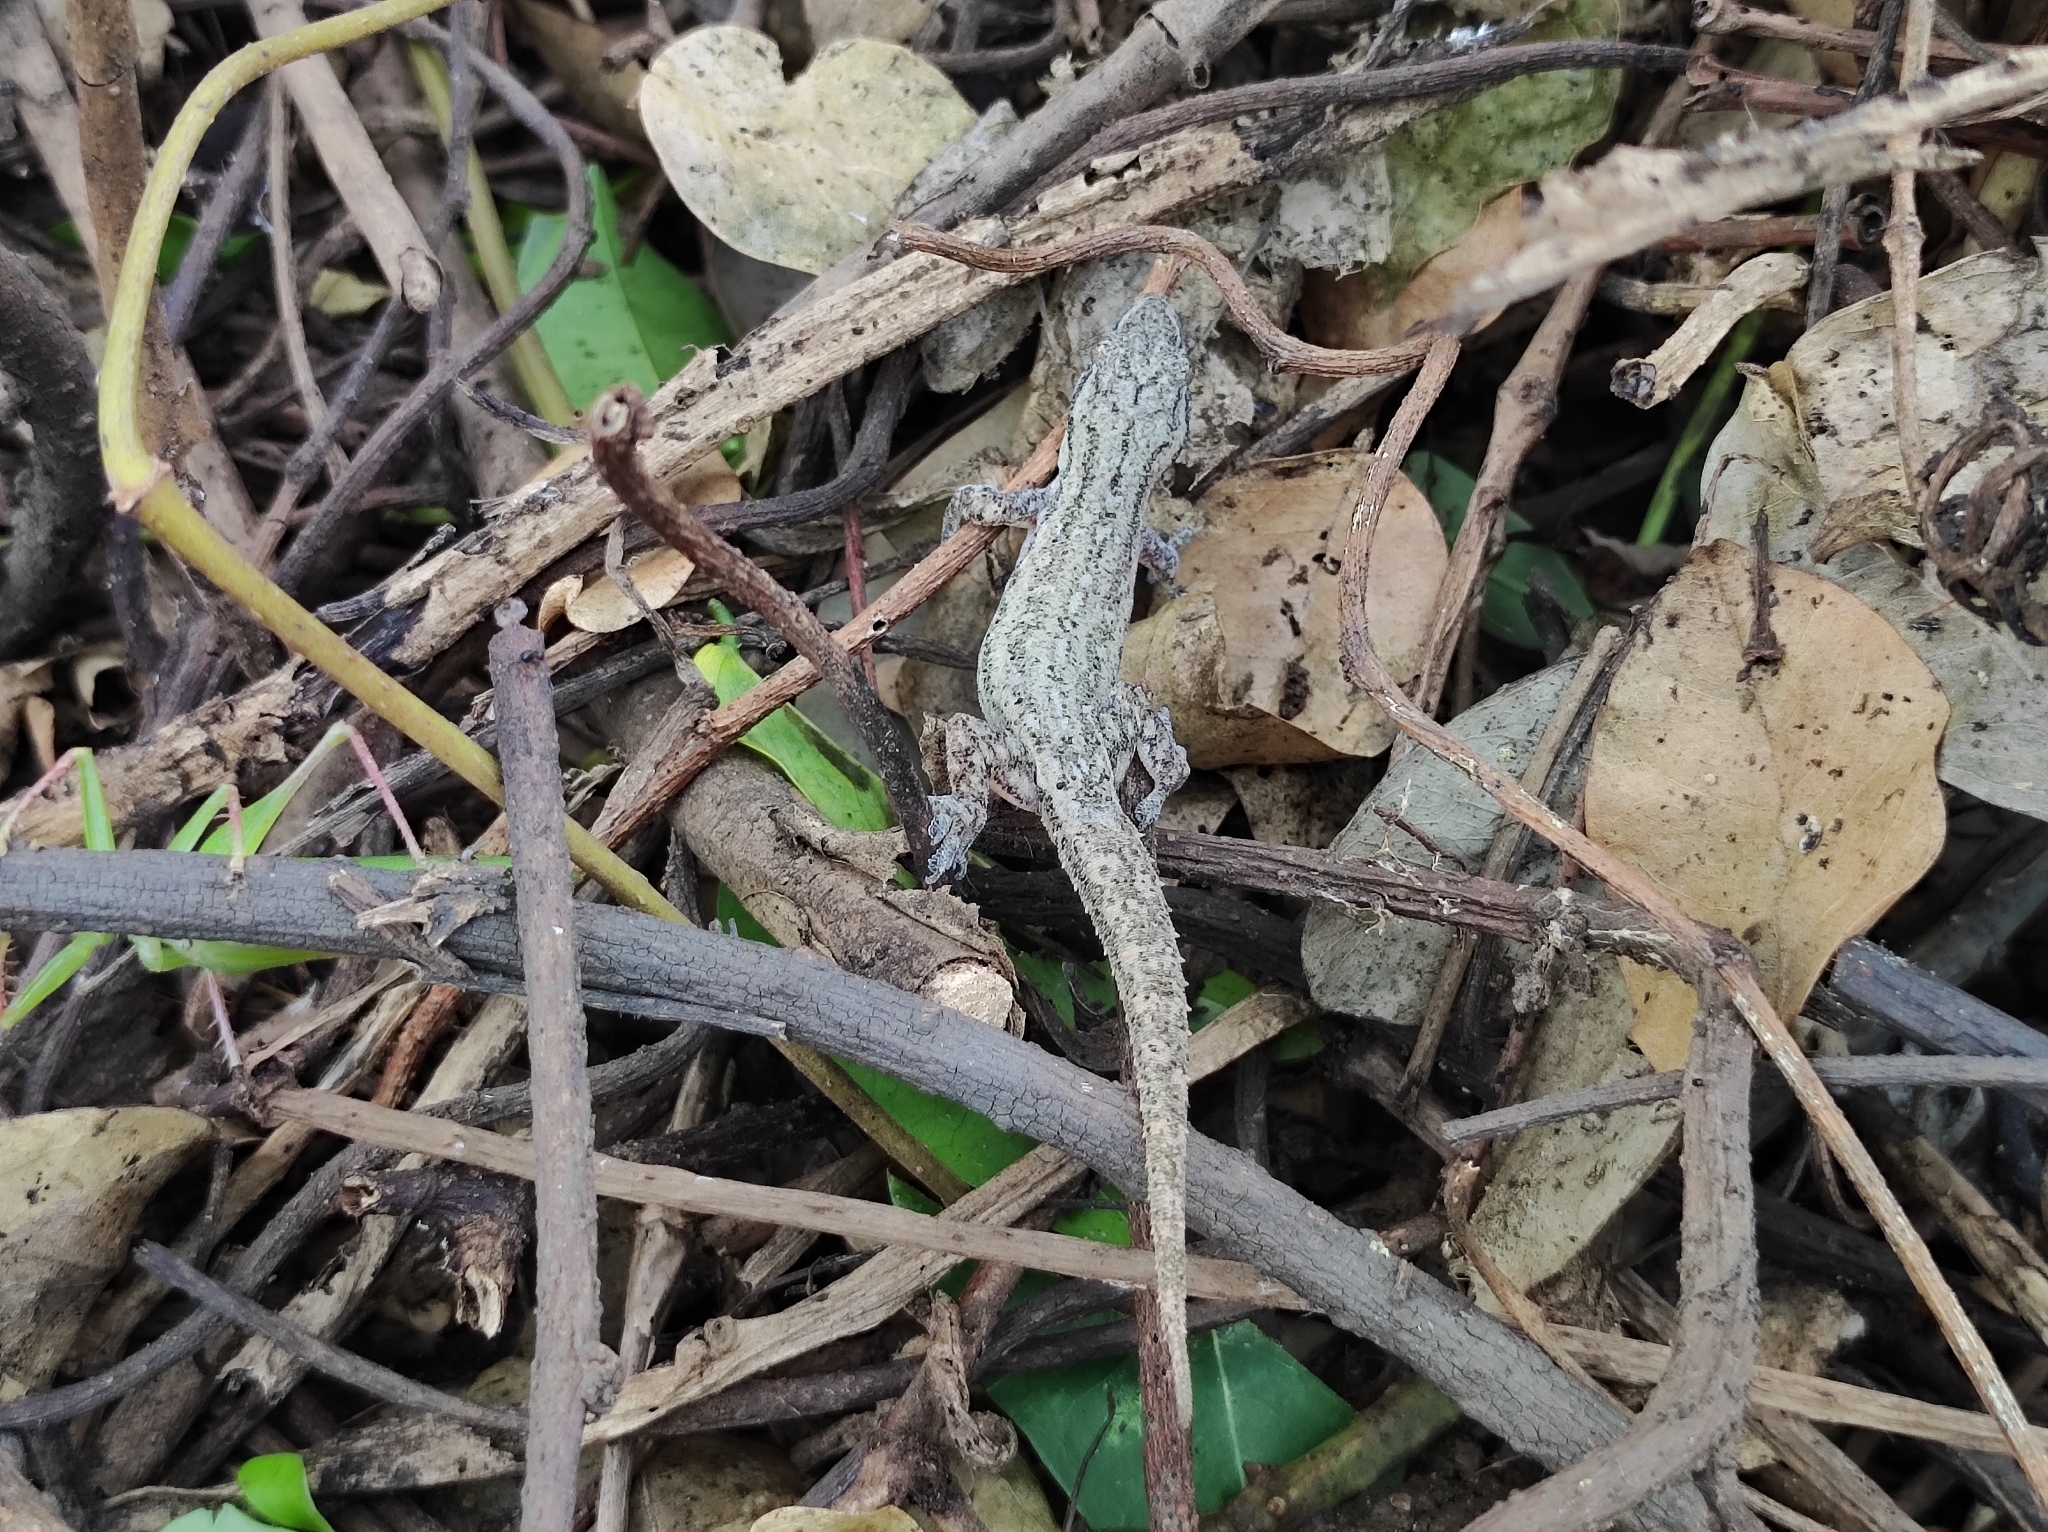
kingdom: Animalia
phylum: Chordata
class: Squamata
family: Gekkonidae
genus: Hemidactylus
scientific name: Hemidactylus leschenaultii
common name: Leschenault's leaf-toed gecko
